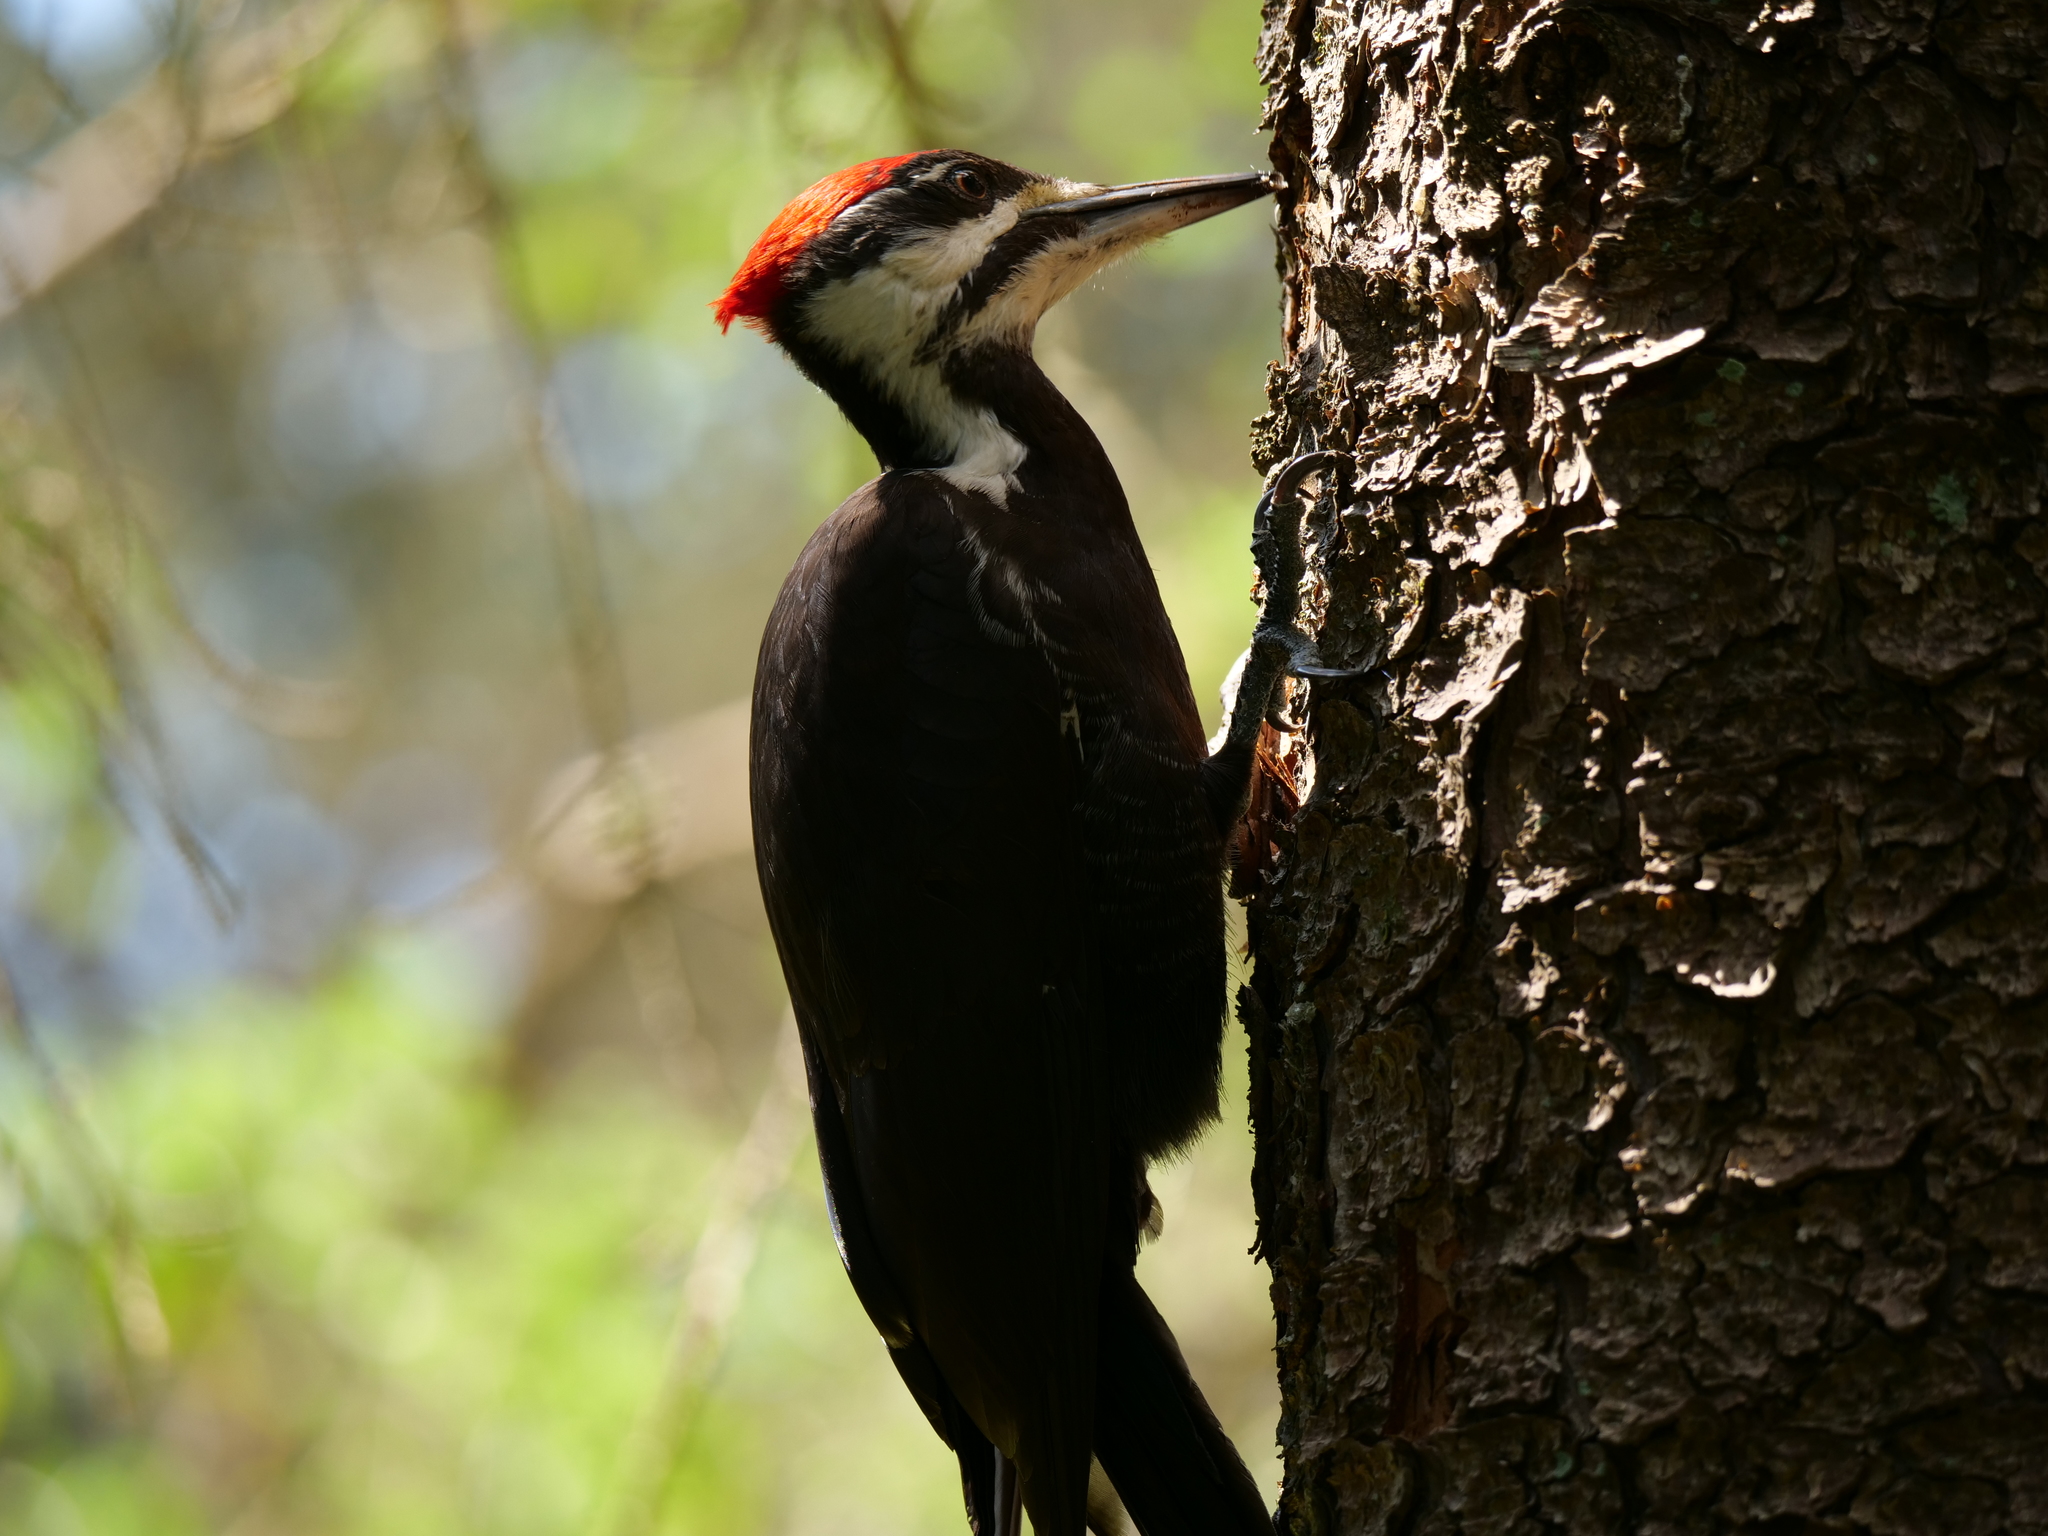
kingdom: Animalia
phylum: Chordata
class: Aves
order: Piciformes
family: Picidae
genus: Dryocopus
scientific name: Dryocopus pileatus
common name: Pileated woodpecker
